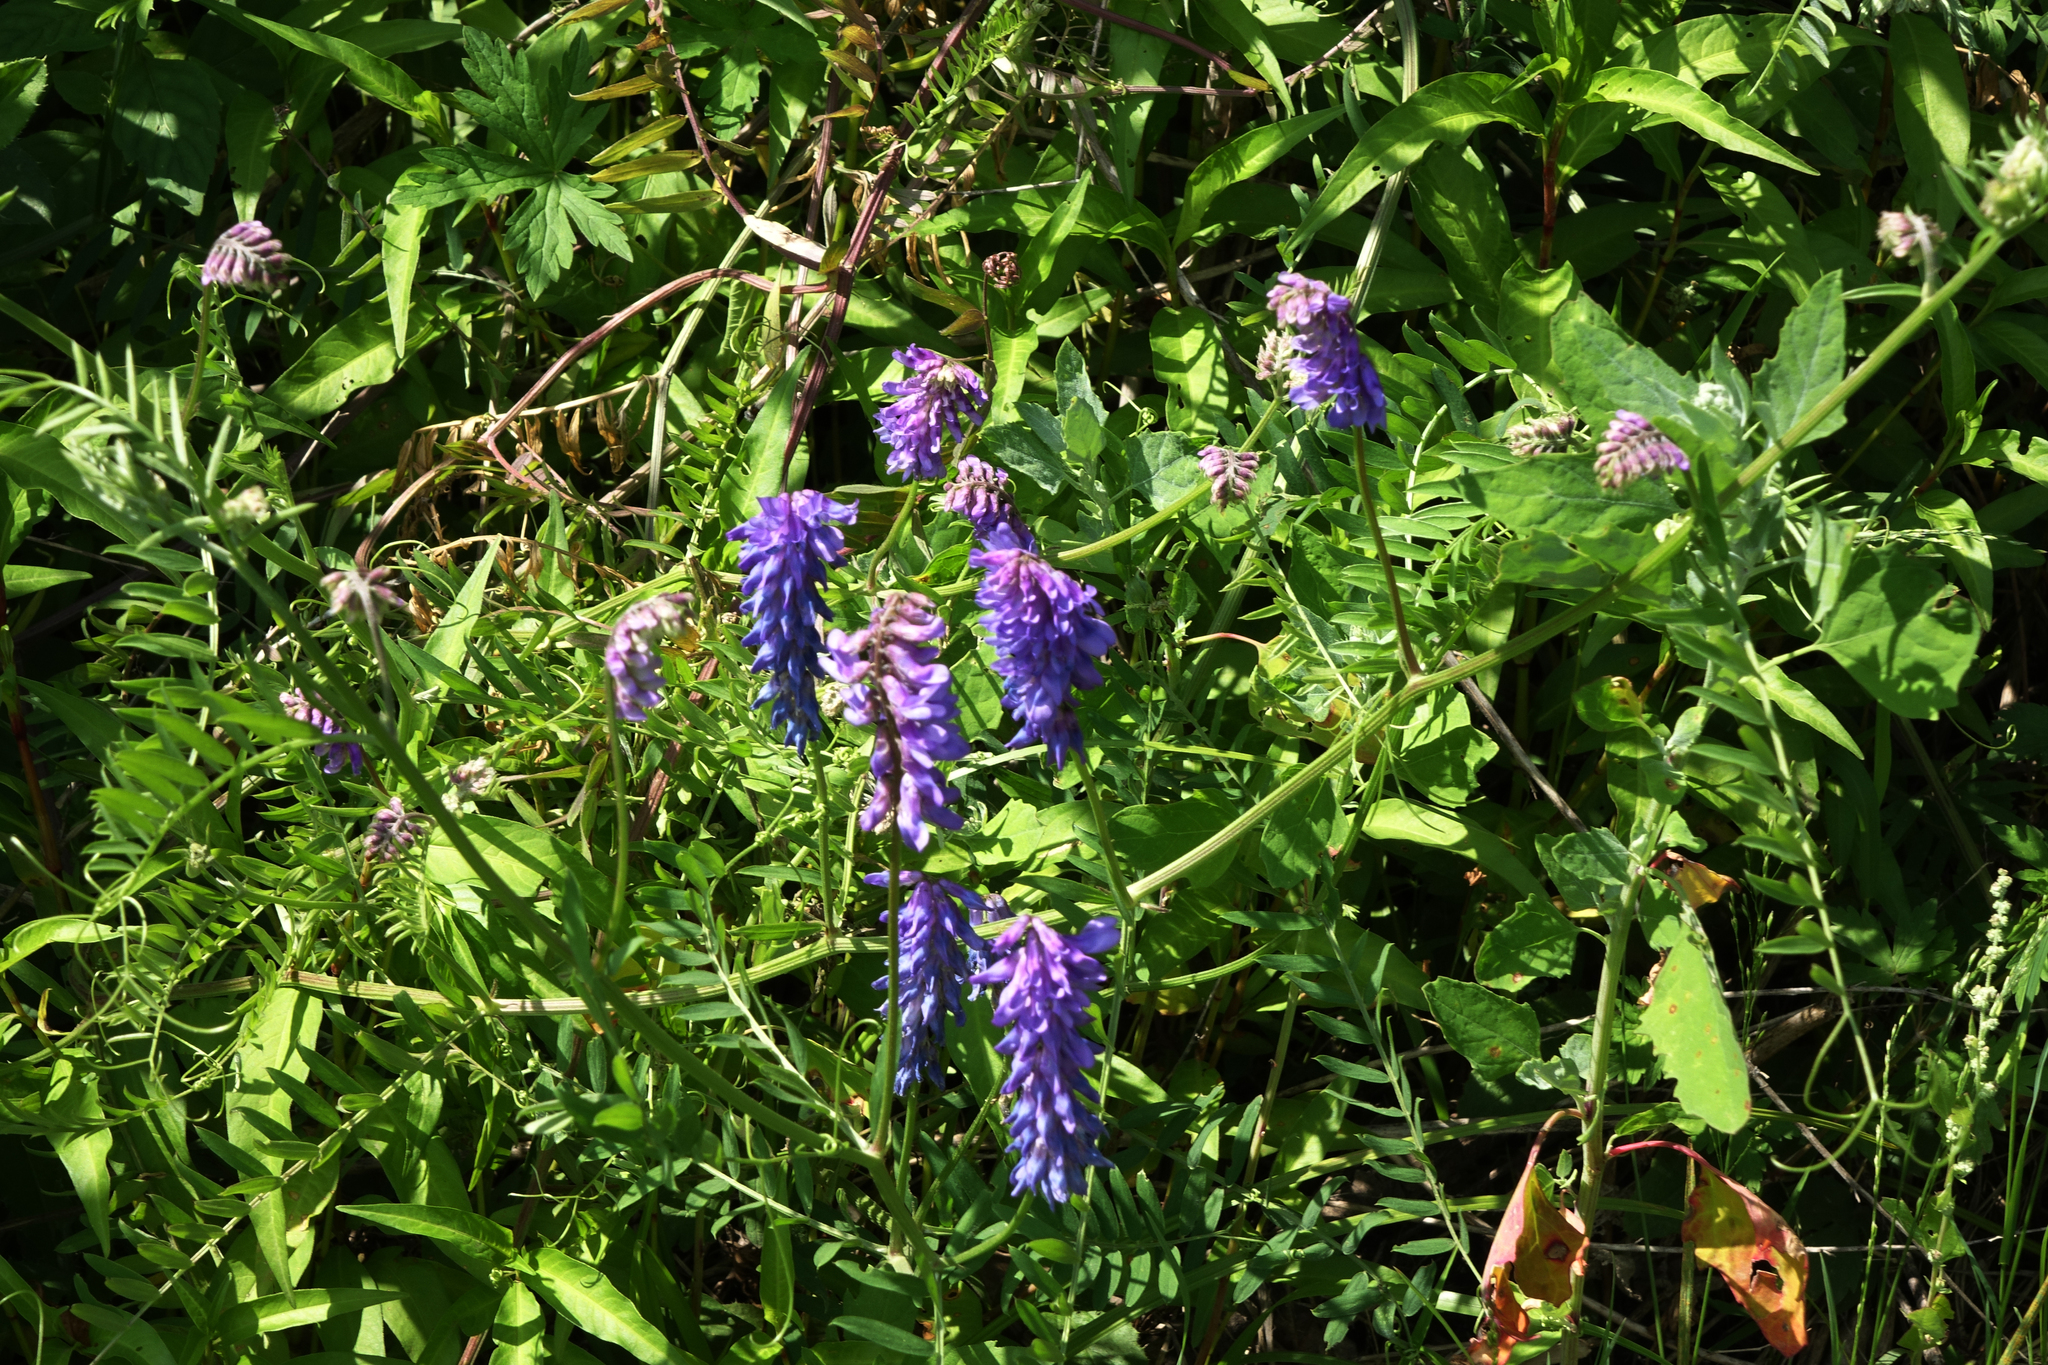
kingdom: Plantae
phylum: Tracheophyta
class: Magnoliopsida
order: Fabales
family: Fabaceae
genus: Vicia
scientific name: Vicia cracca
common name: Bird vetch
